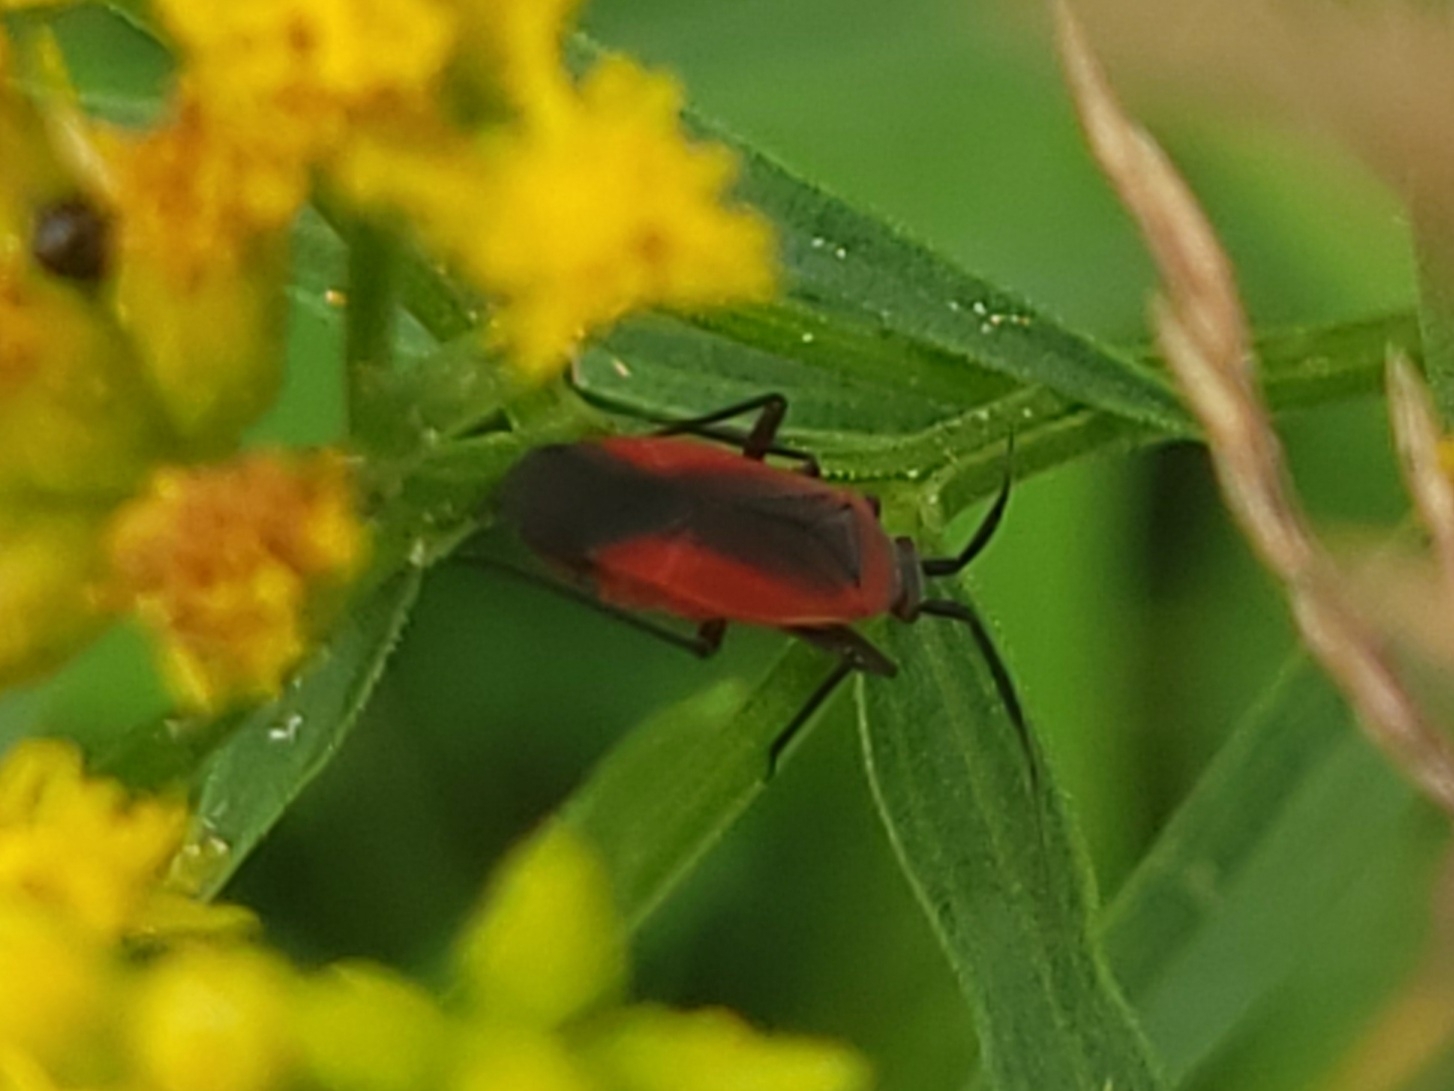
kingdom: Animalia
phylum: Arthropoda
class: Insecta
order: Hemiptera
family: Miridae
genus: Lopidea
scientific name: Lopidea instabilis
